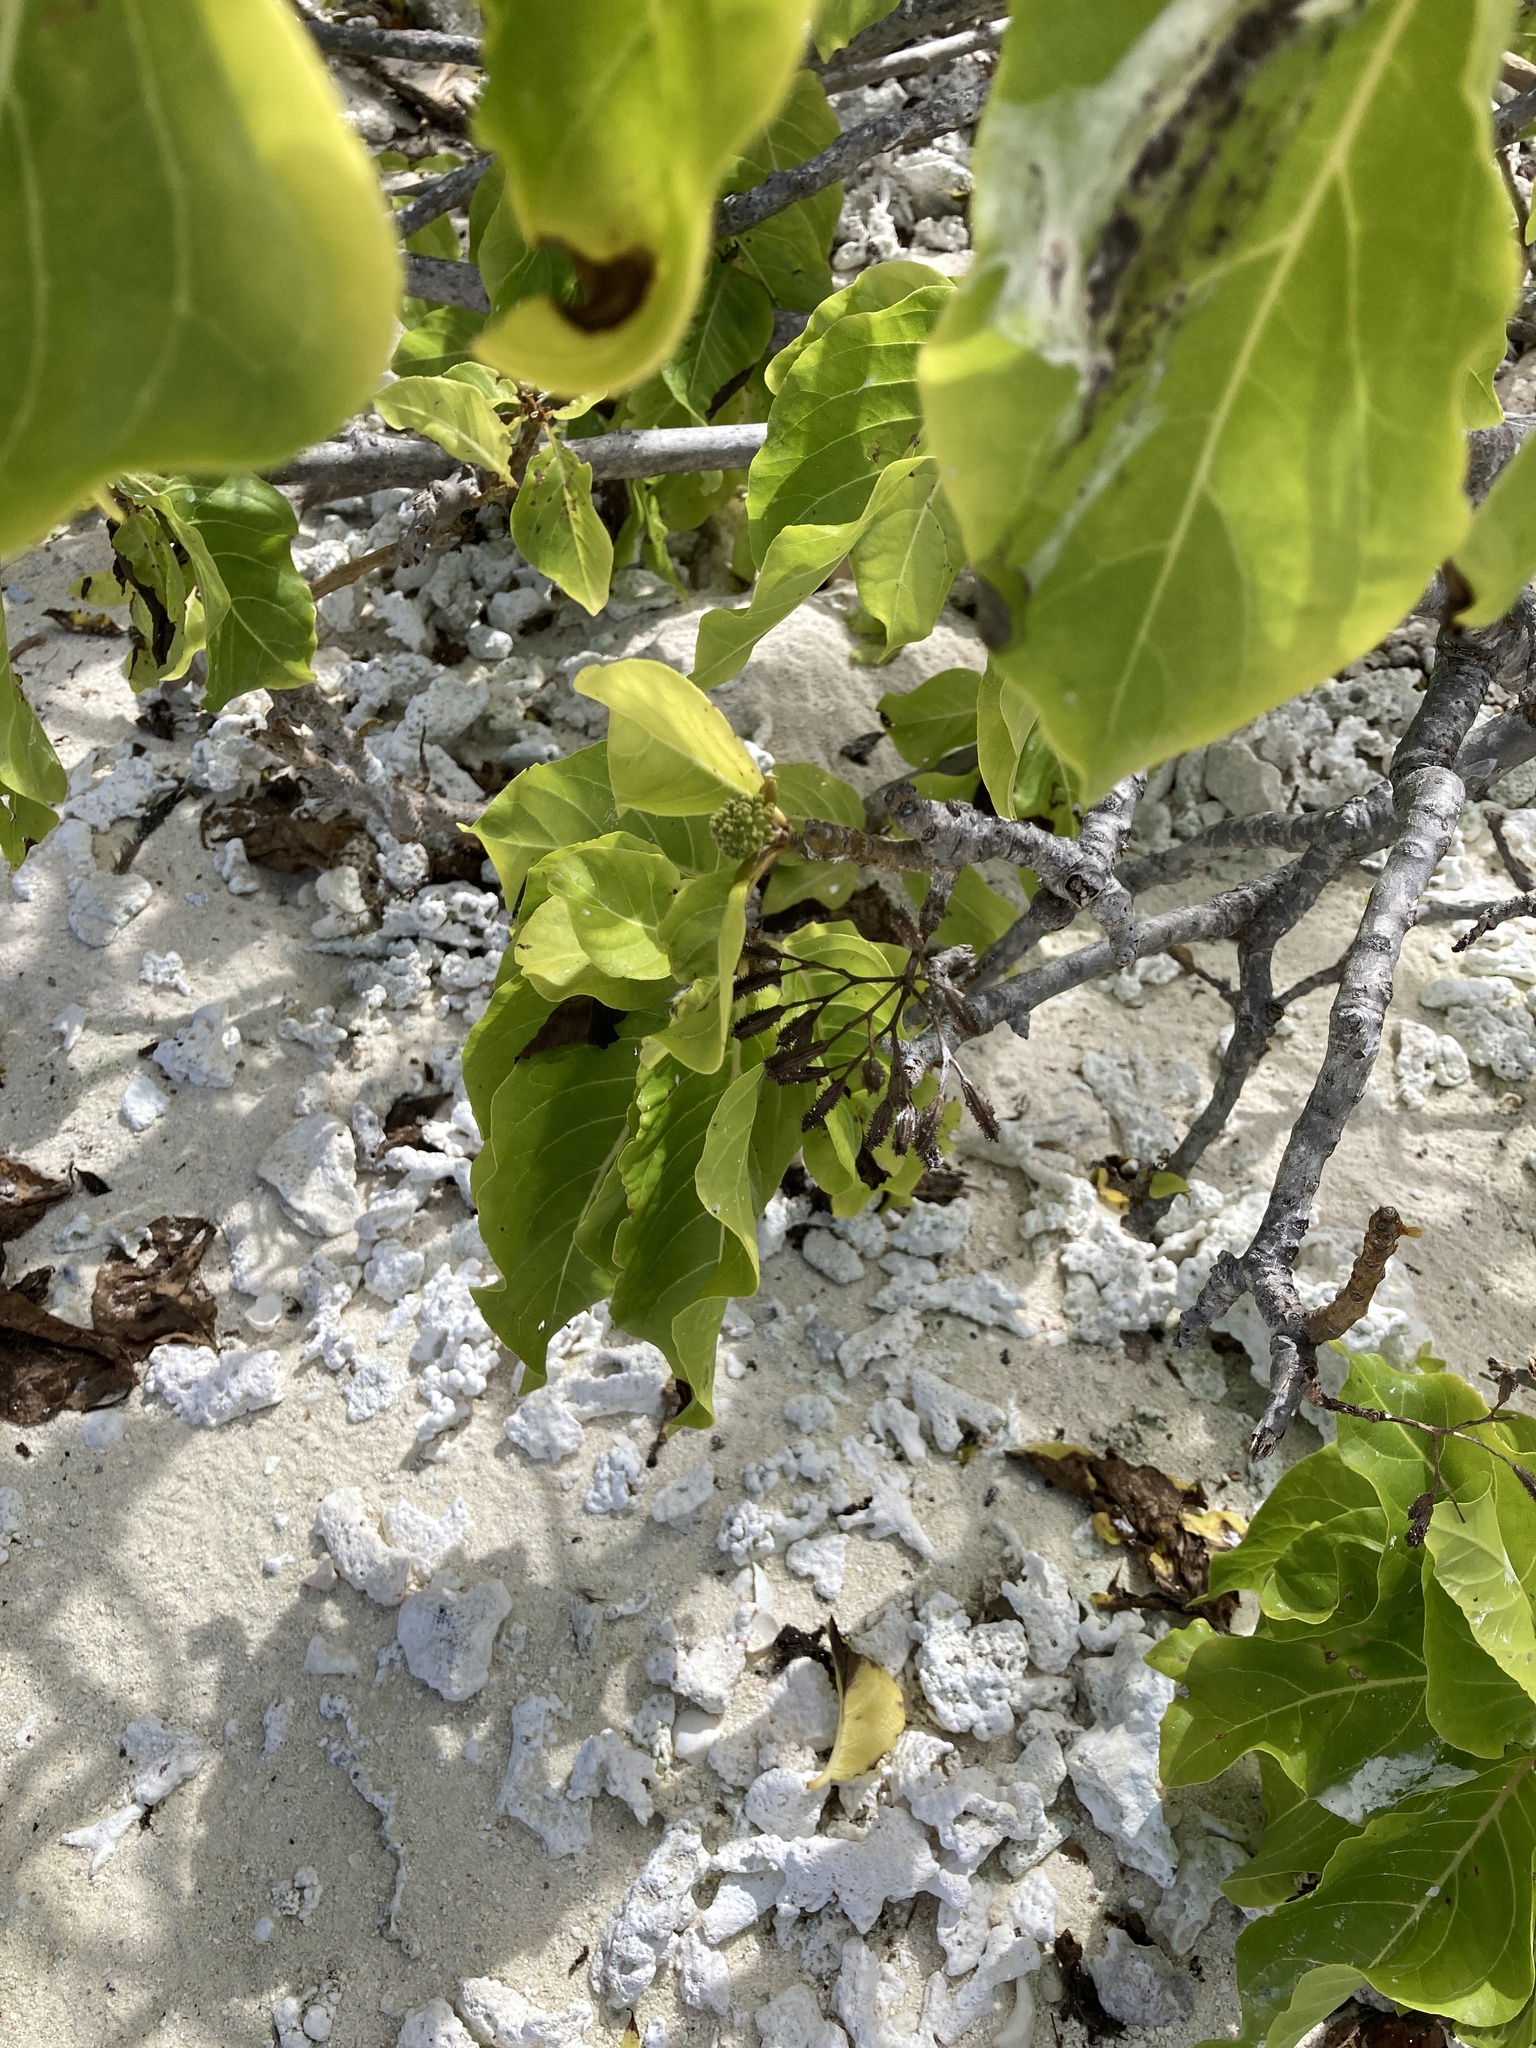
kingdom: Plantae
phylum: Tracheophyta
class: Magnoliopsida
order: Caryophyllales
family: Nyctaginaceae
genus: Ceodes
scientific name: Ceodes
